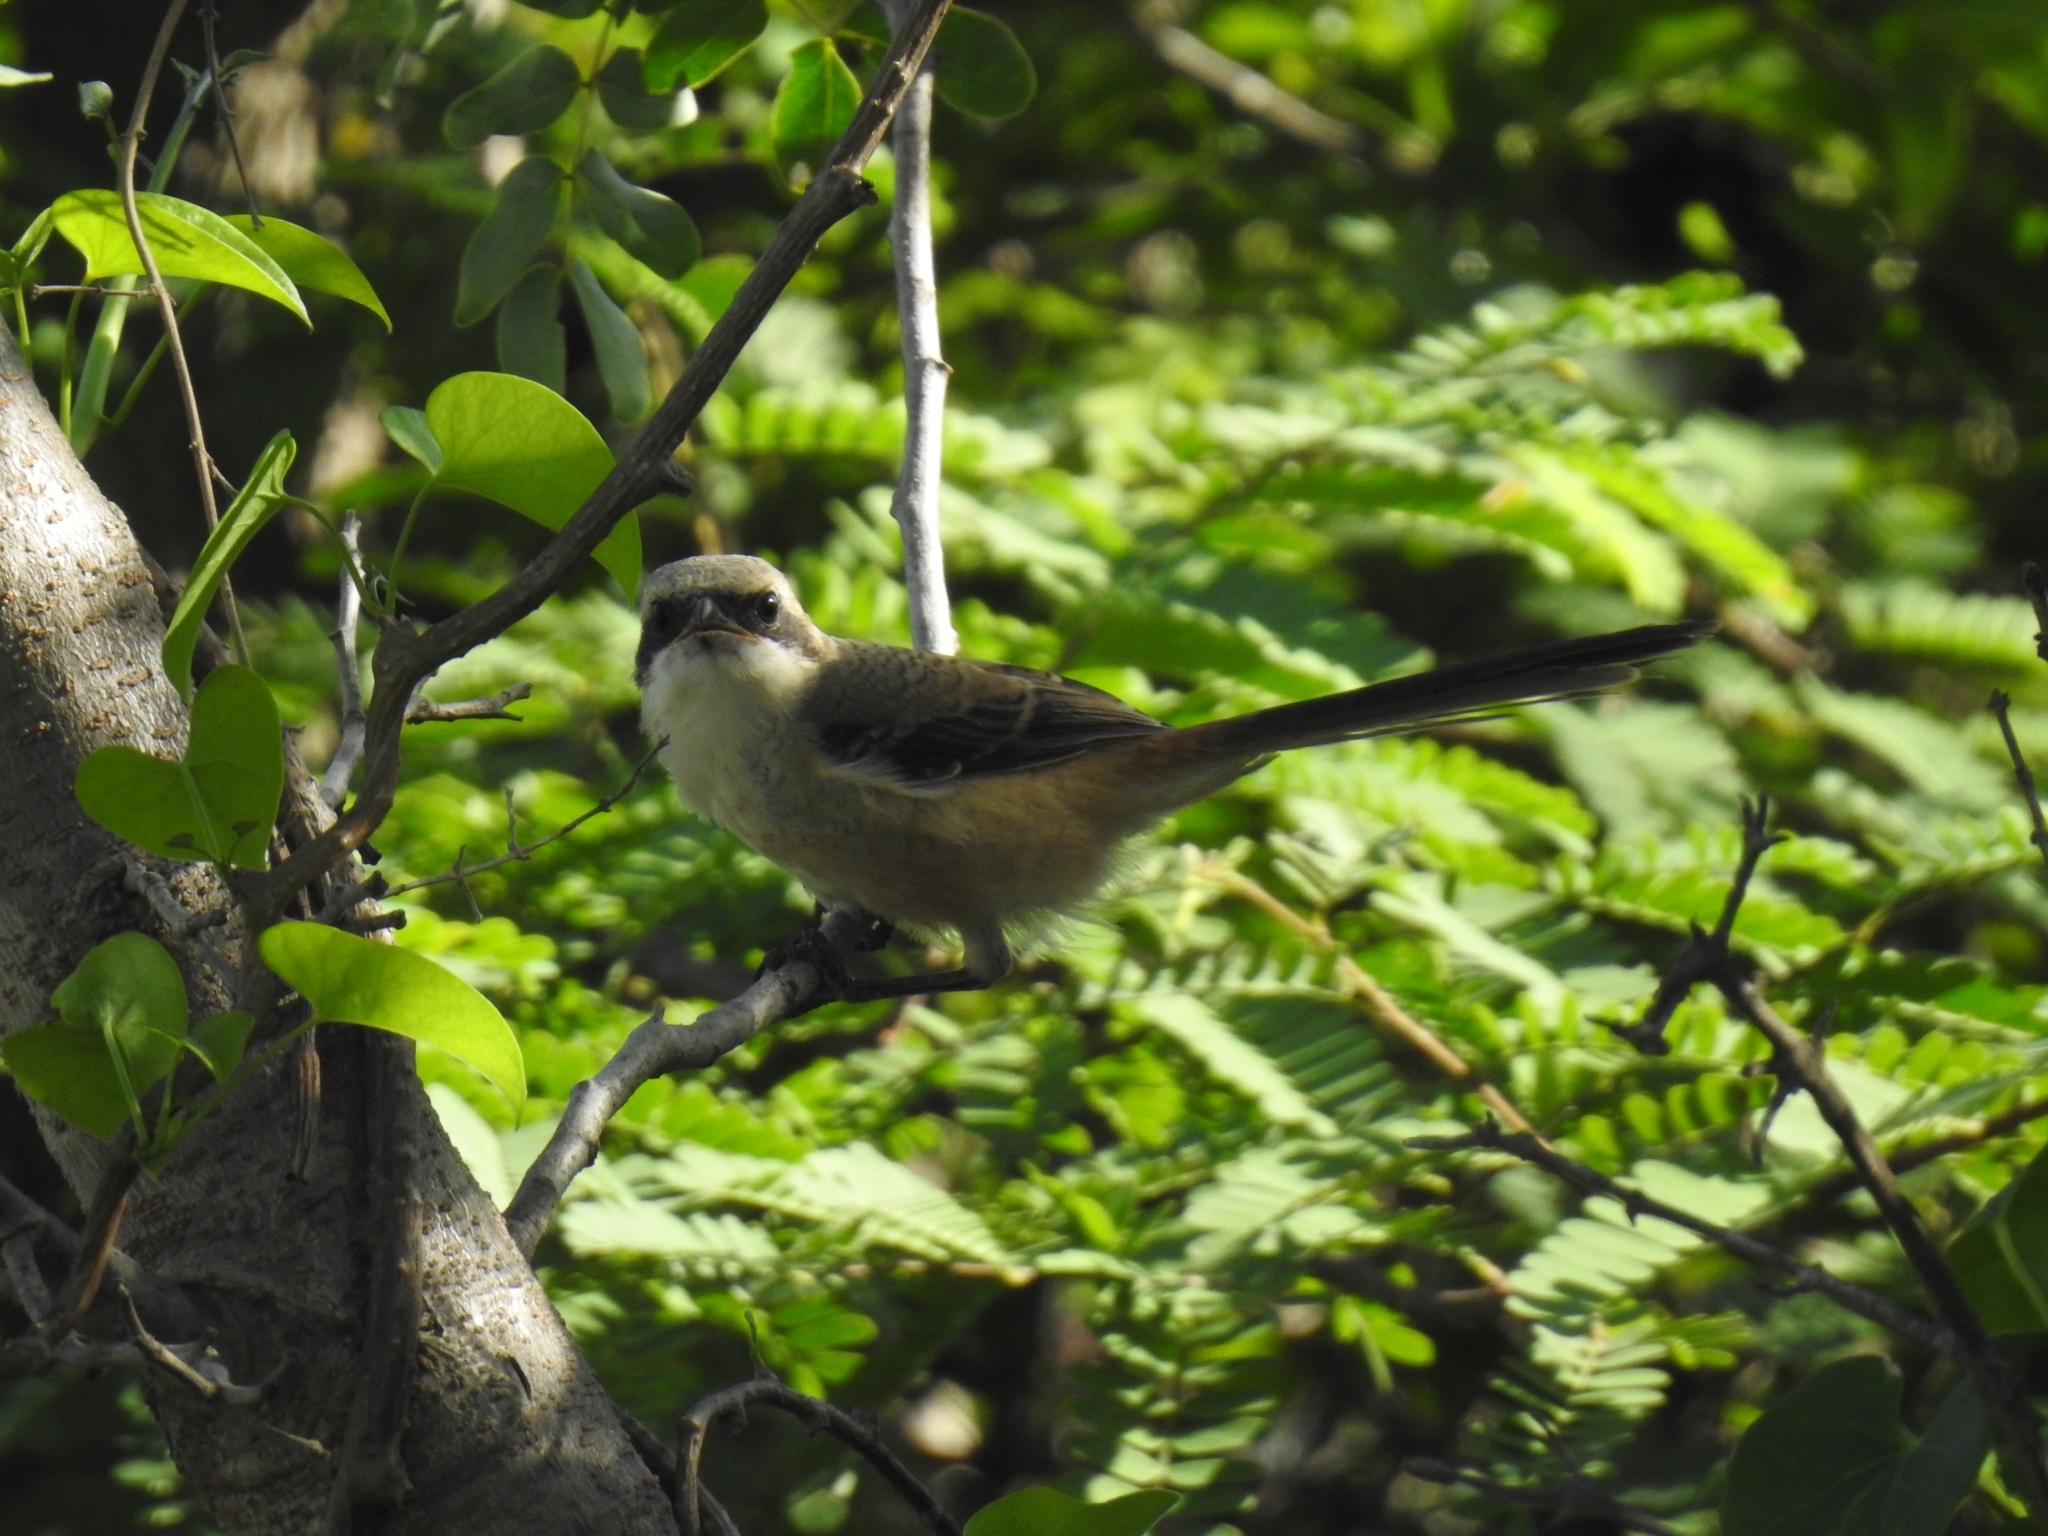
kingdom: Animalia
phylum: Chordata
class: Aves
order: Passeriformes
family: Laniidae
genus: Lanius
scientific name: Lanius cristatus
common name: Brown shrike
